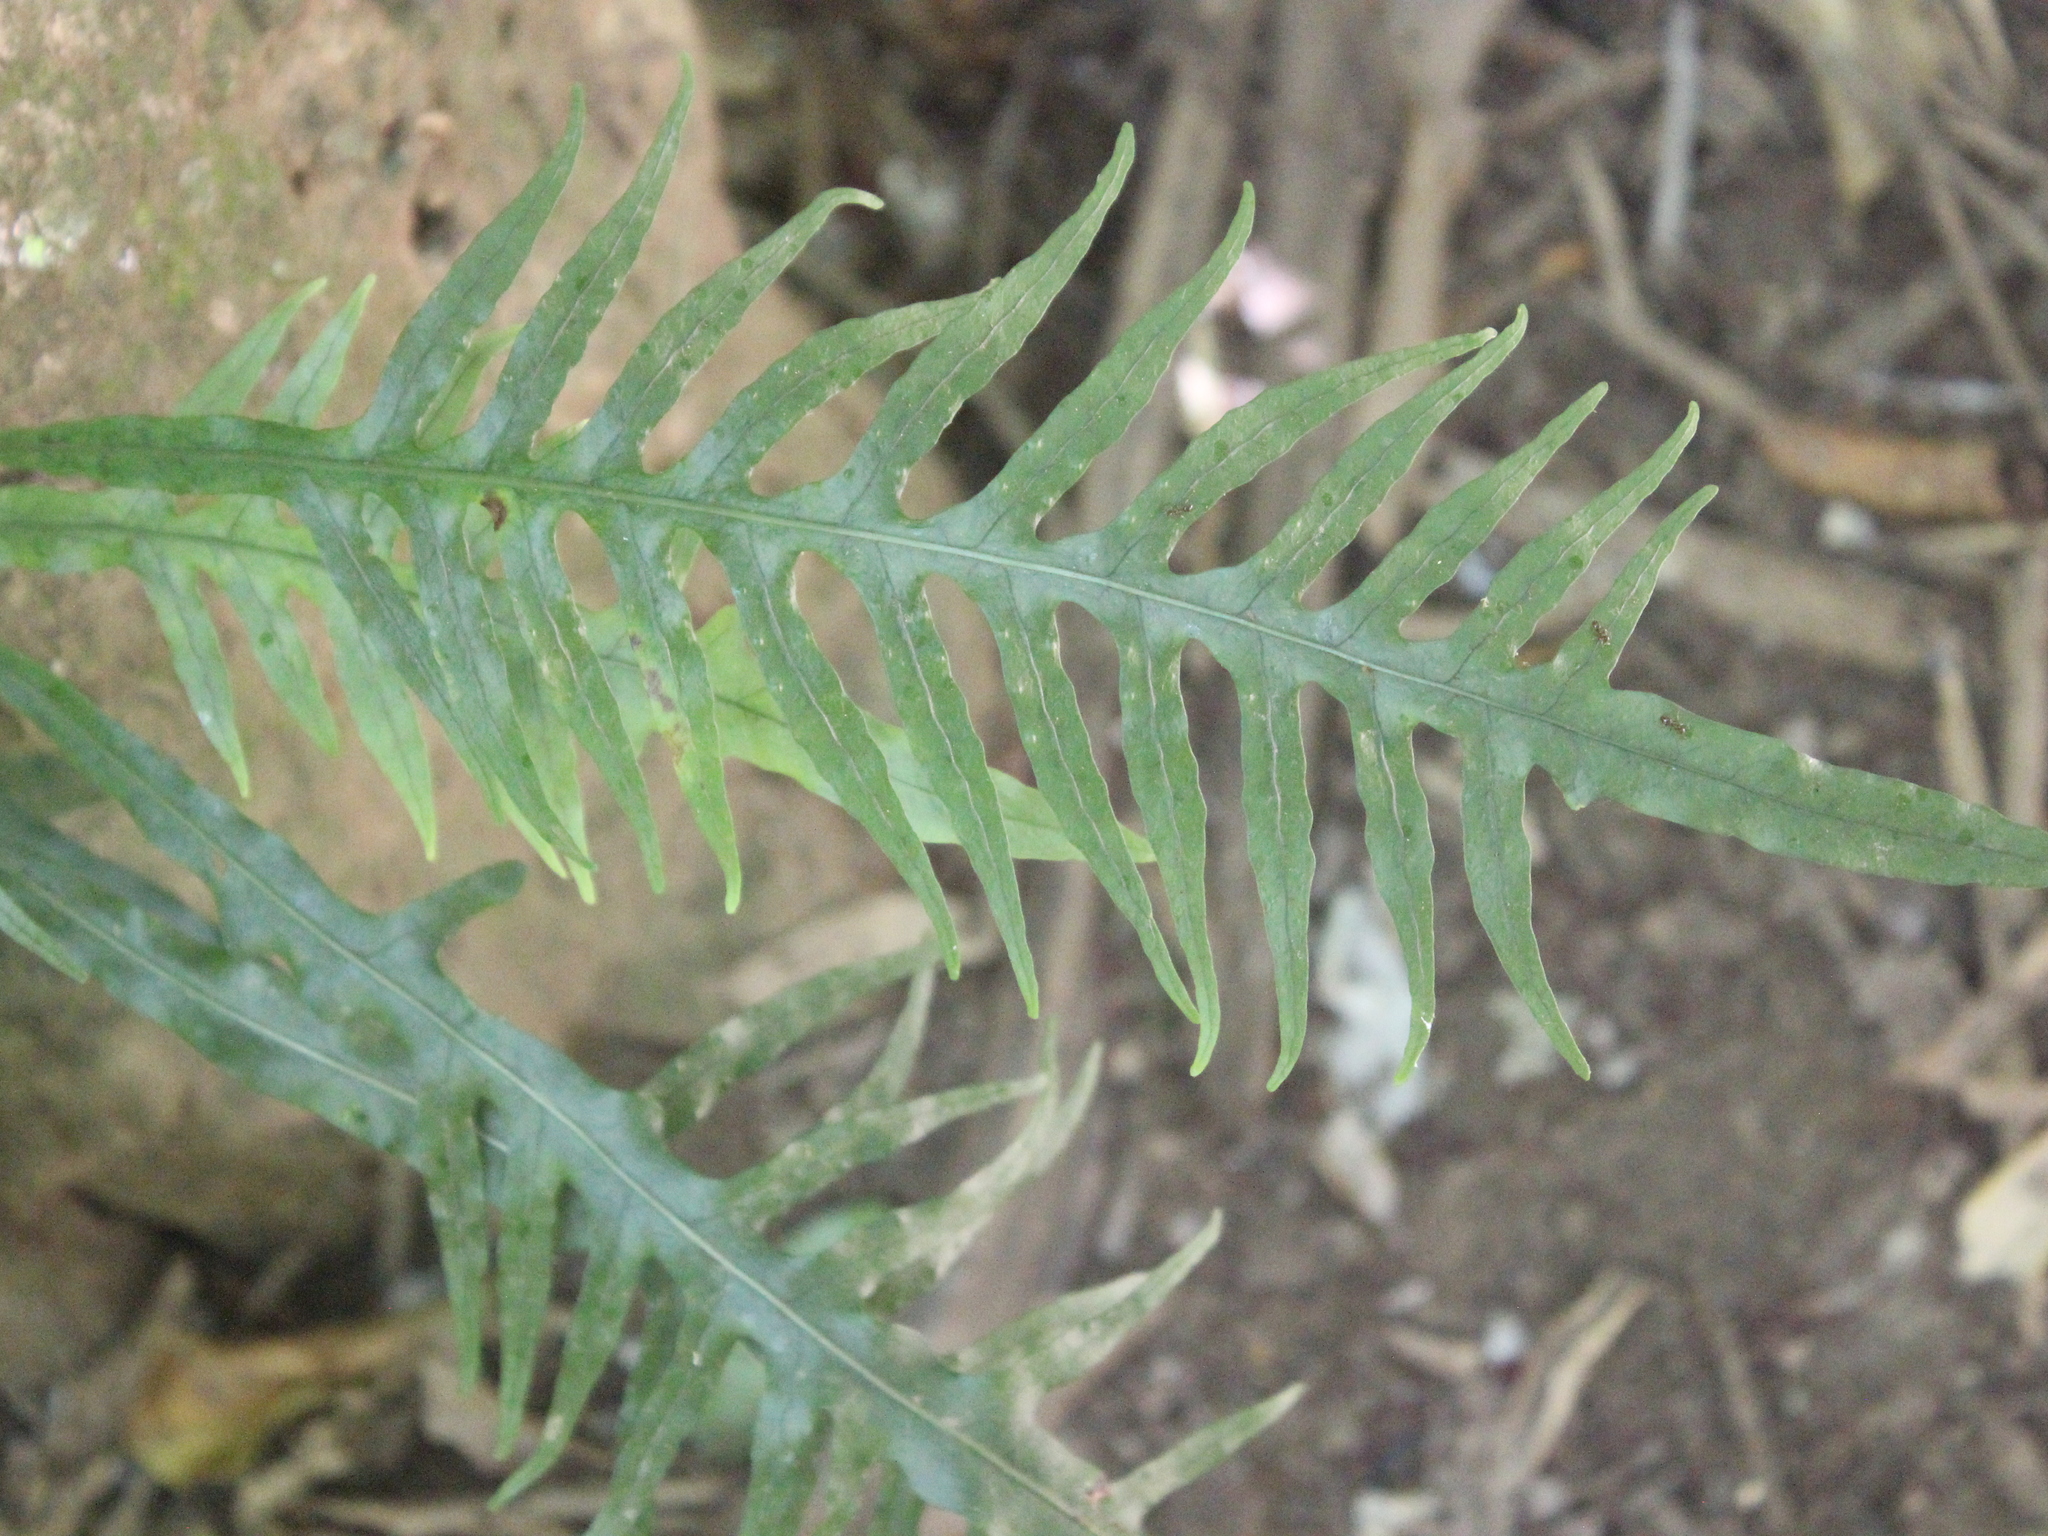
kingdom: Plantae
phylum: Tracheophyta
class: Polypodiopsida
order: Polypodiales
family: Polypodiaceae
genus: Lecanopteris
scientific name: Lecanopteris scandens
